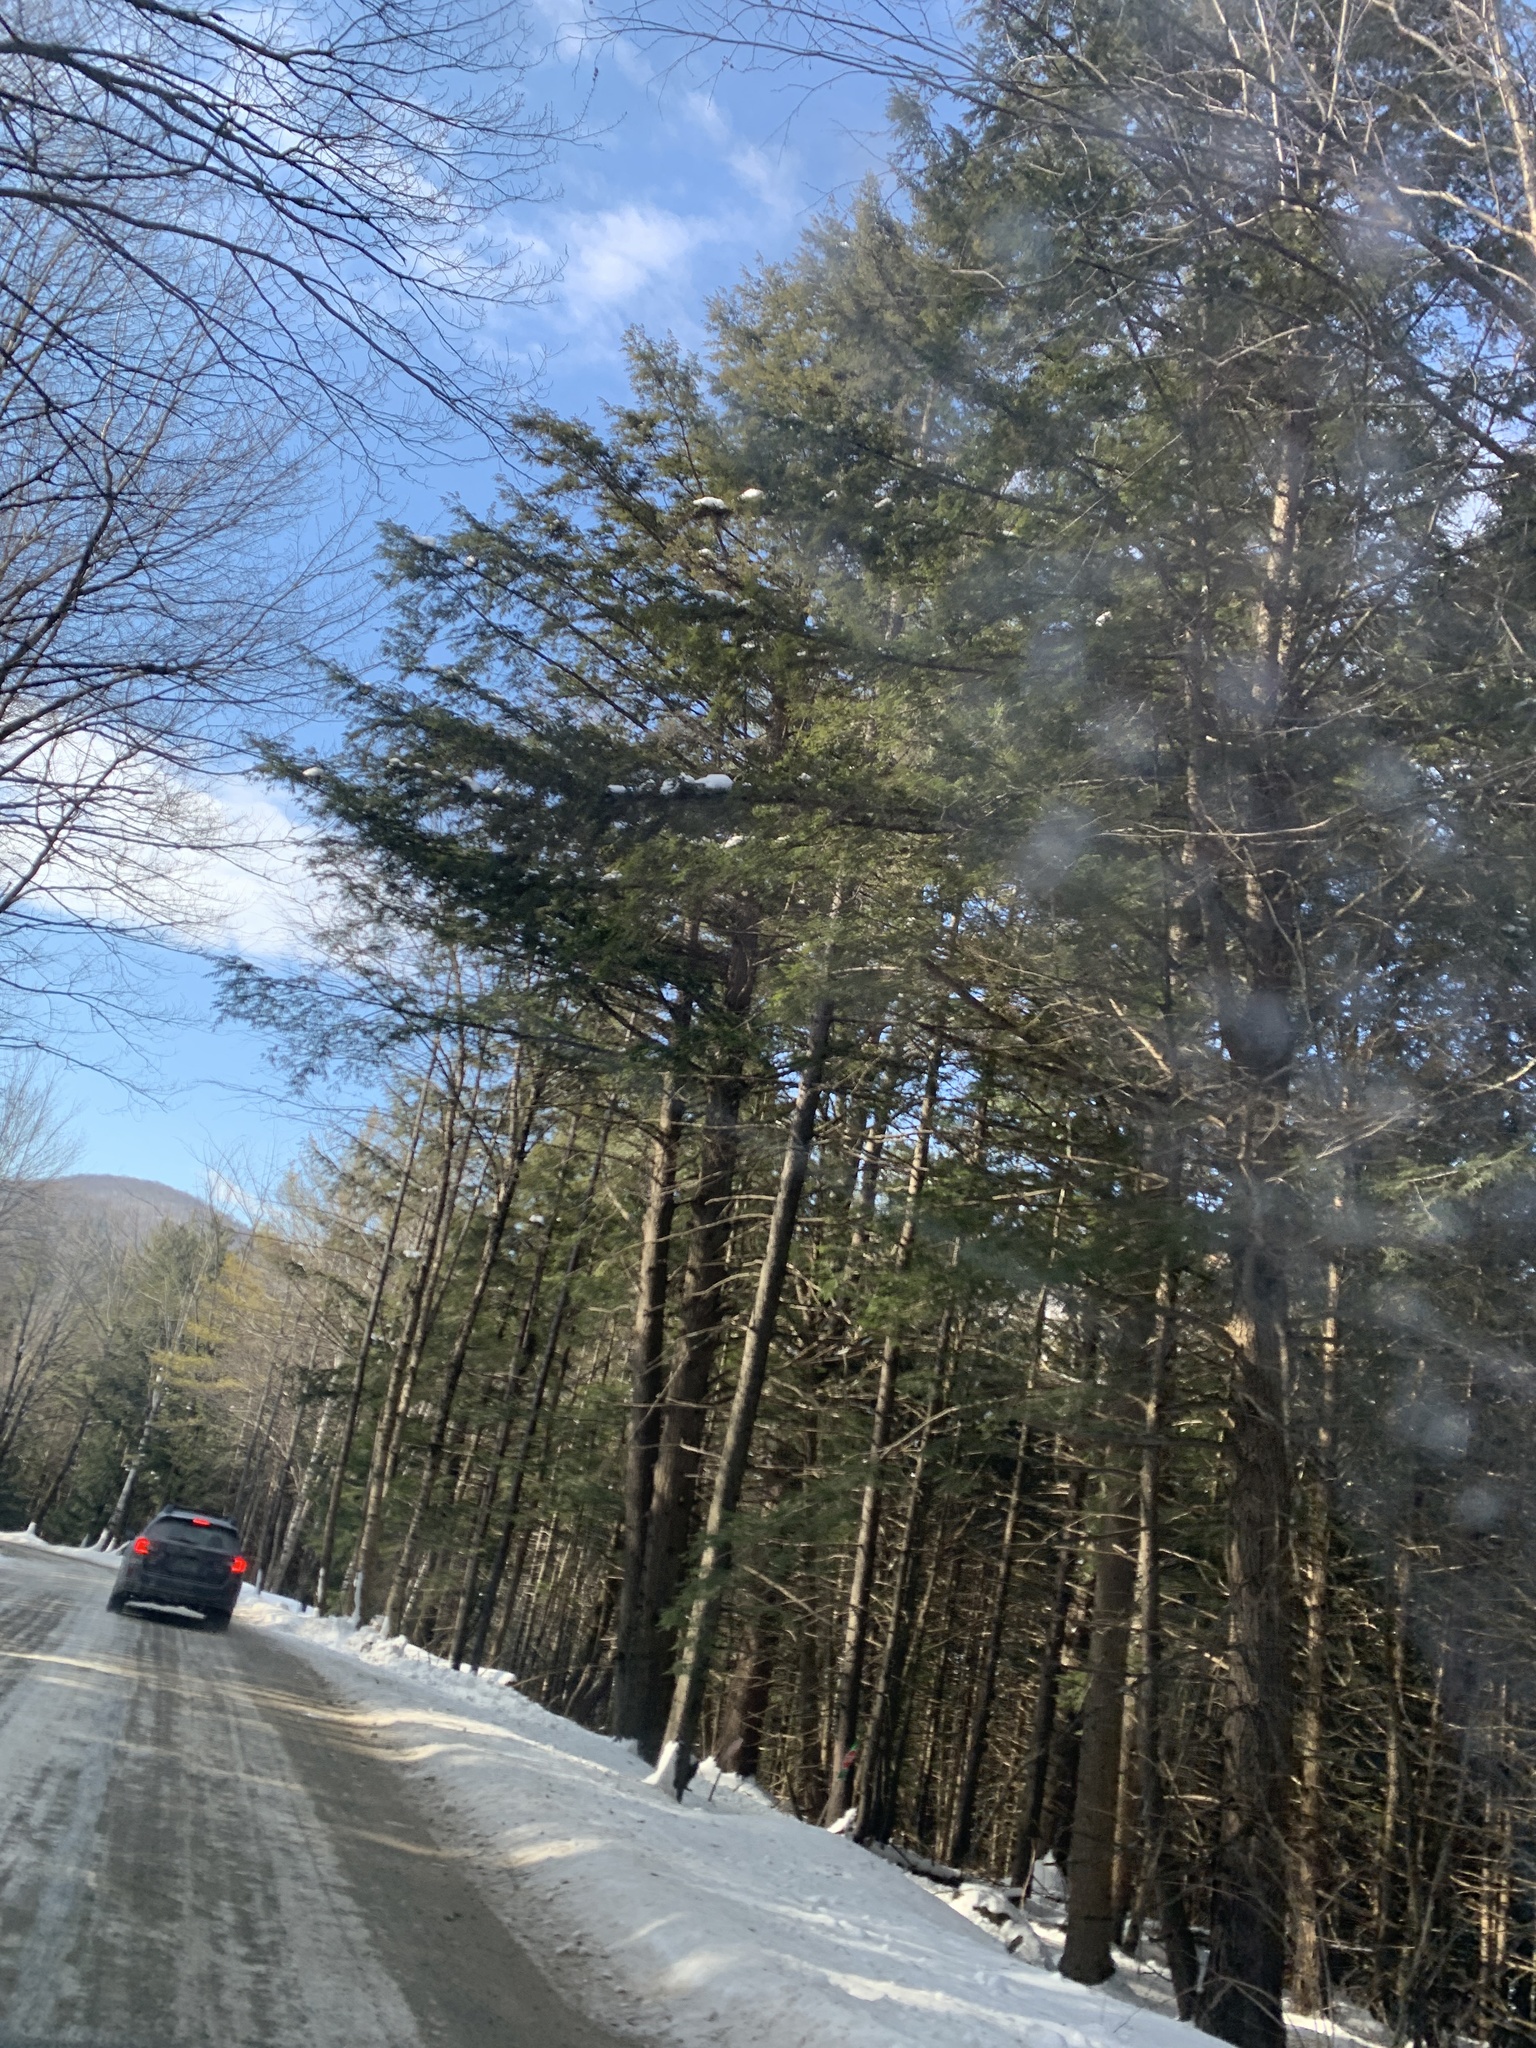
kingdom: Plantae
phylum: Tracheophyta
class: Pinopsida
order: Pinales
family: Pinaceae
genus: Tsuga
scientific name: Tsuga canadensis
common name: Eastern hemlock
